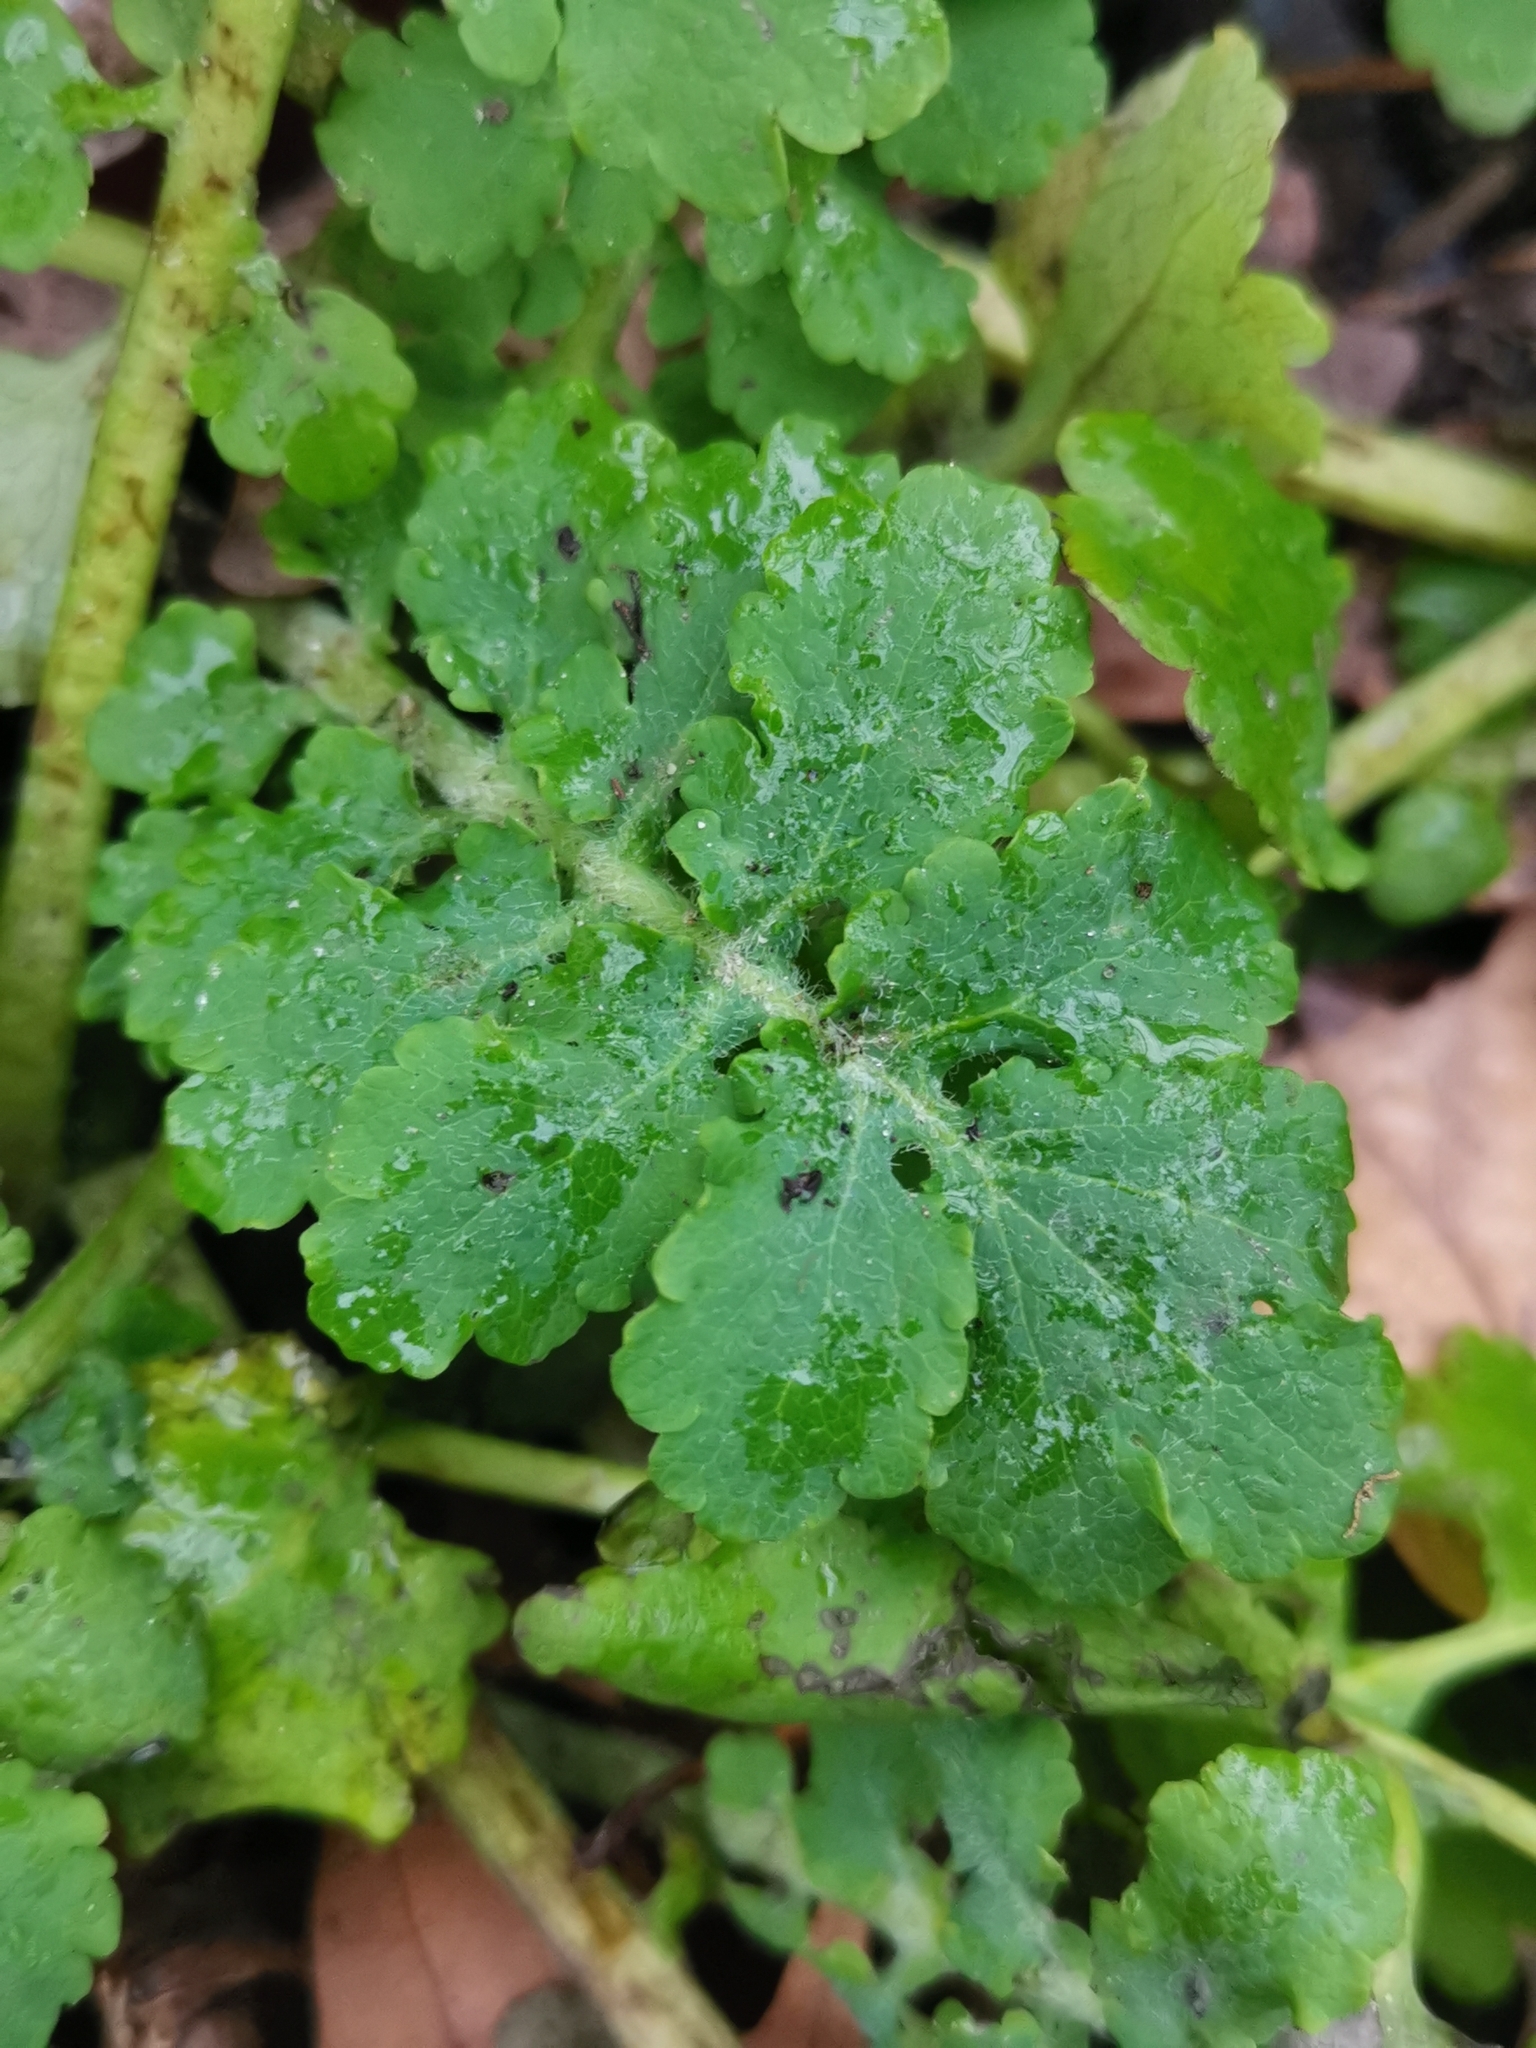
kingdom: Plantae
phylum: Tracheophyta
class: Magnoliopsida
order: Ranunculales
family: Papaveraceae
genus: Chelidonium
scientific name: Chelidonium majus
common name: Greater celandine
